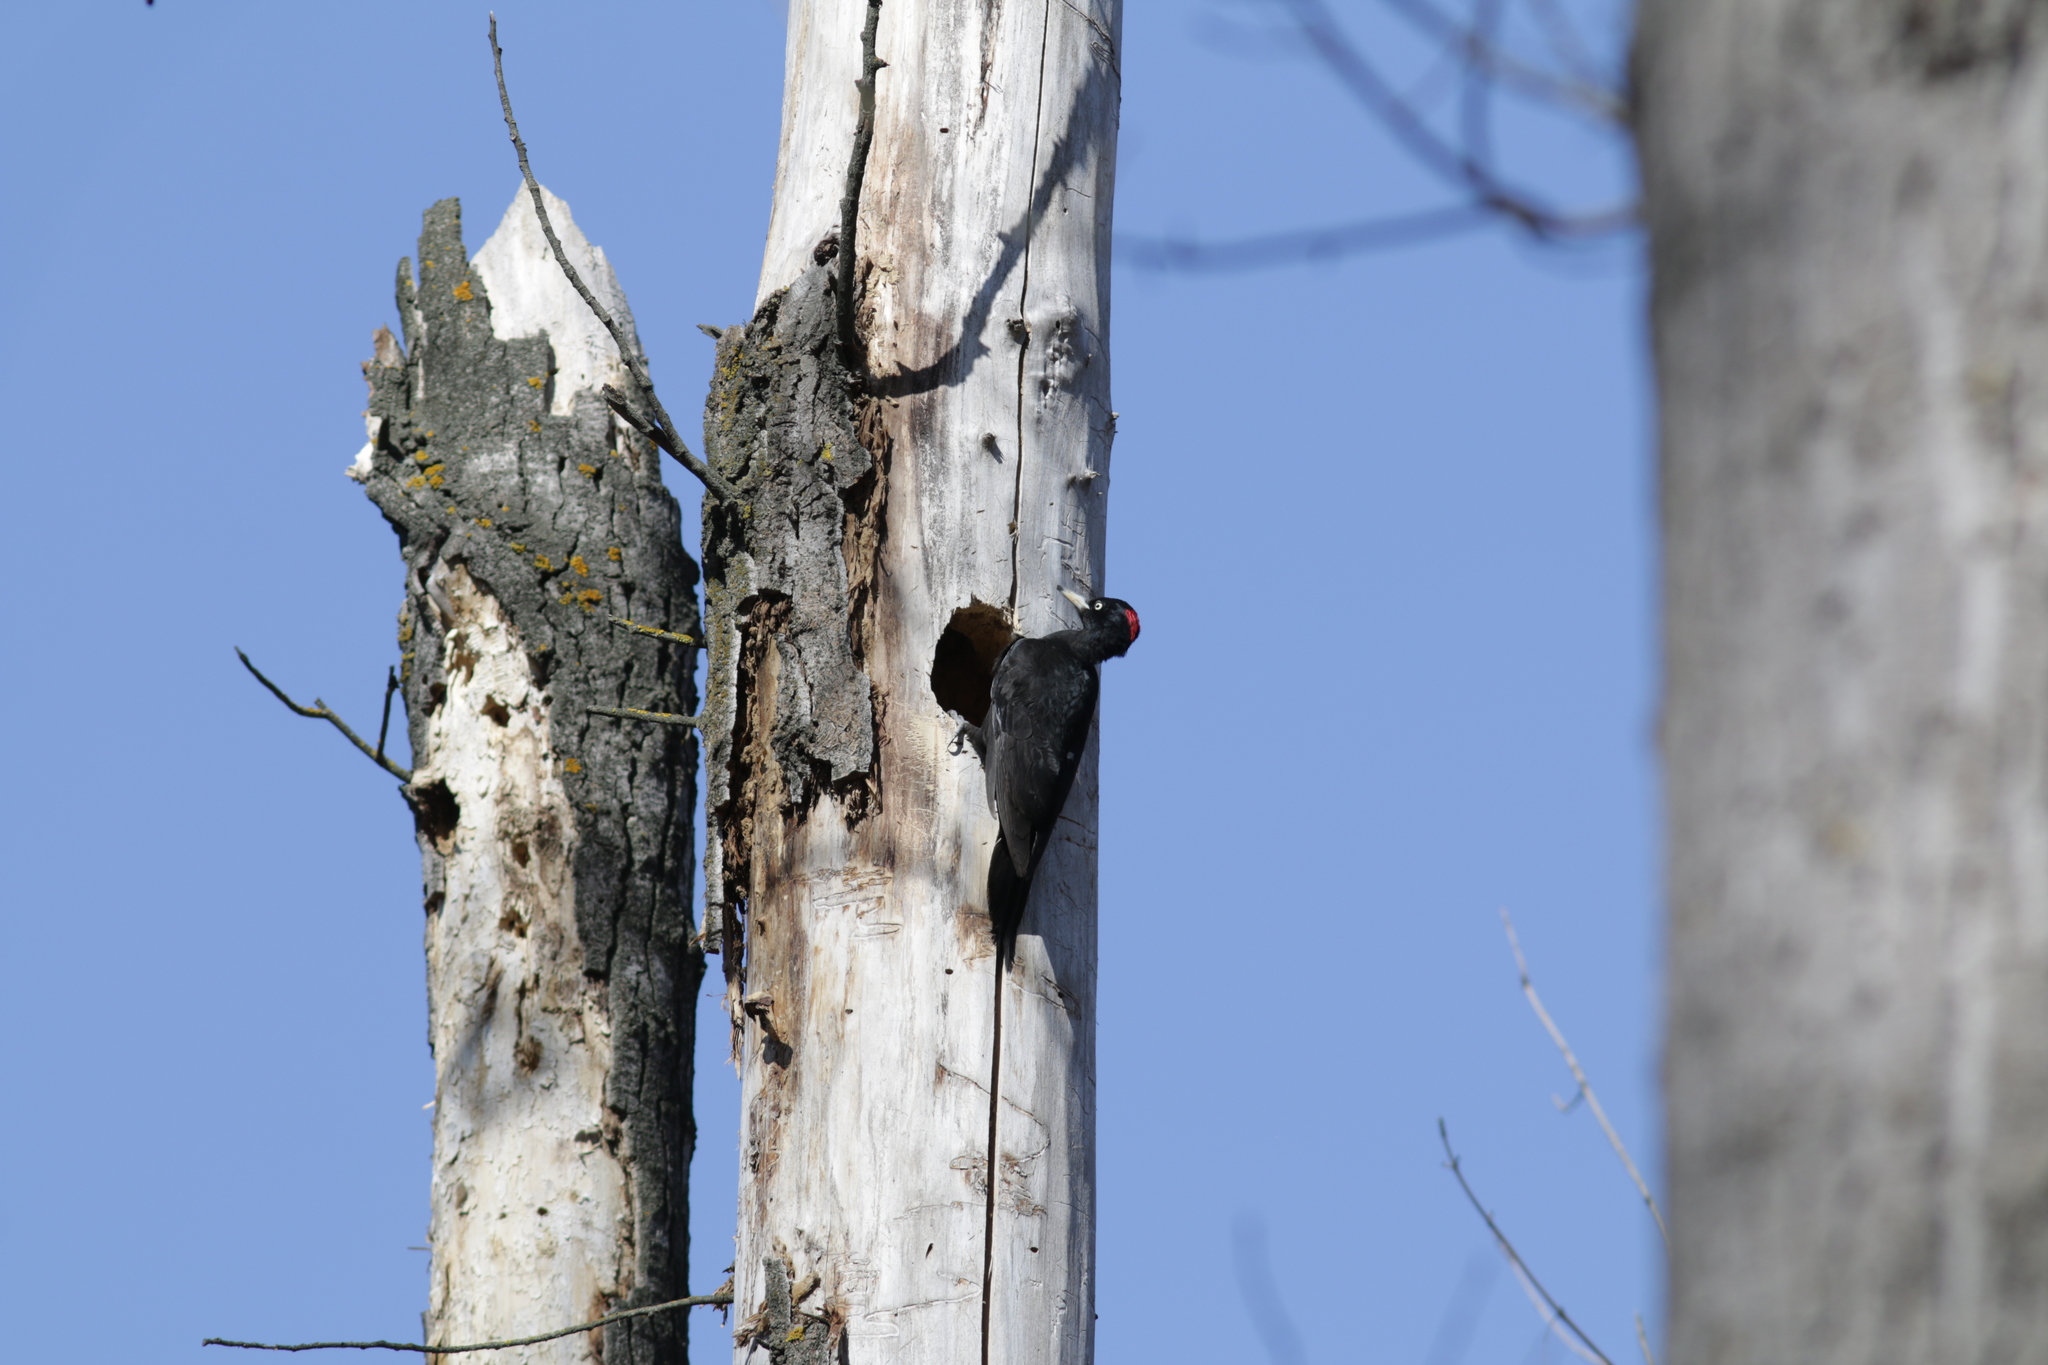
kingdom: Animalia
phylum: Chordata
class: Aves
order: Piciformes
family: Picidae
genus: Dryocopus
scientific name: Dryocopus martius
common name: Black woodpecker
